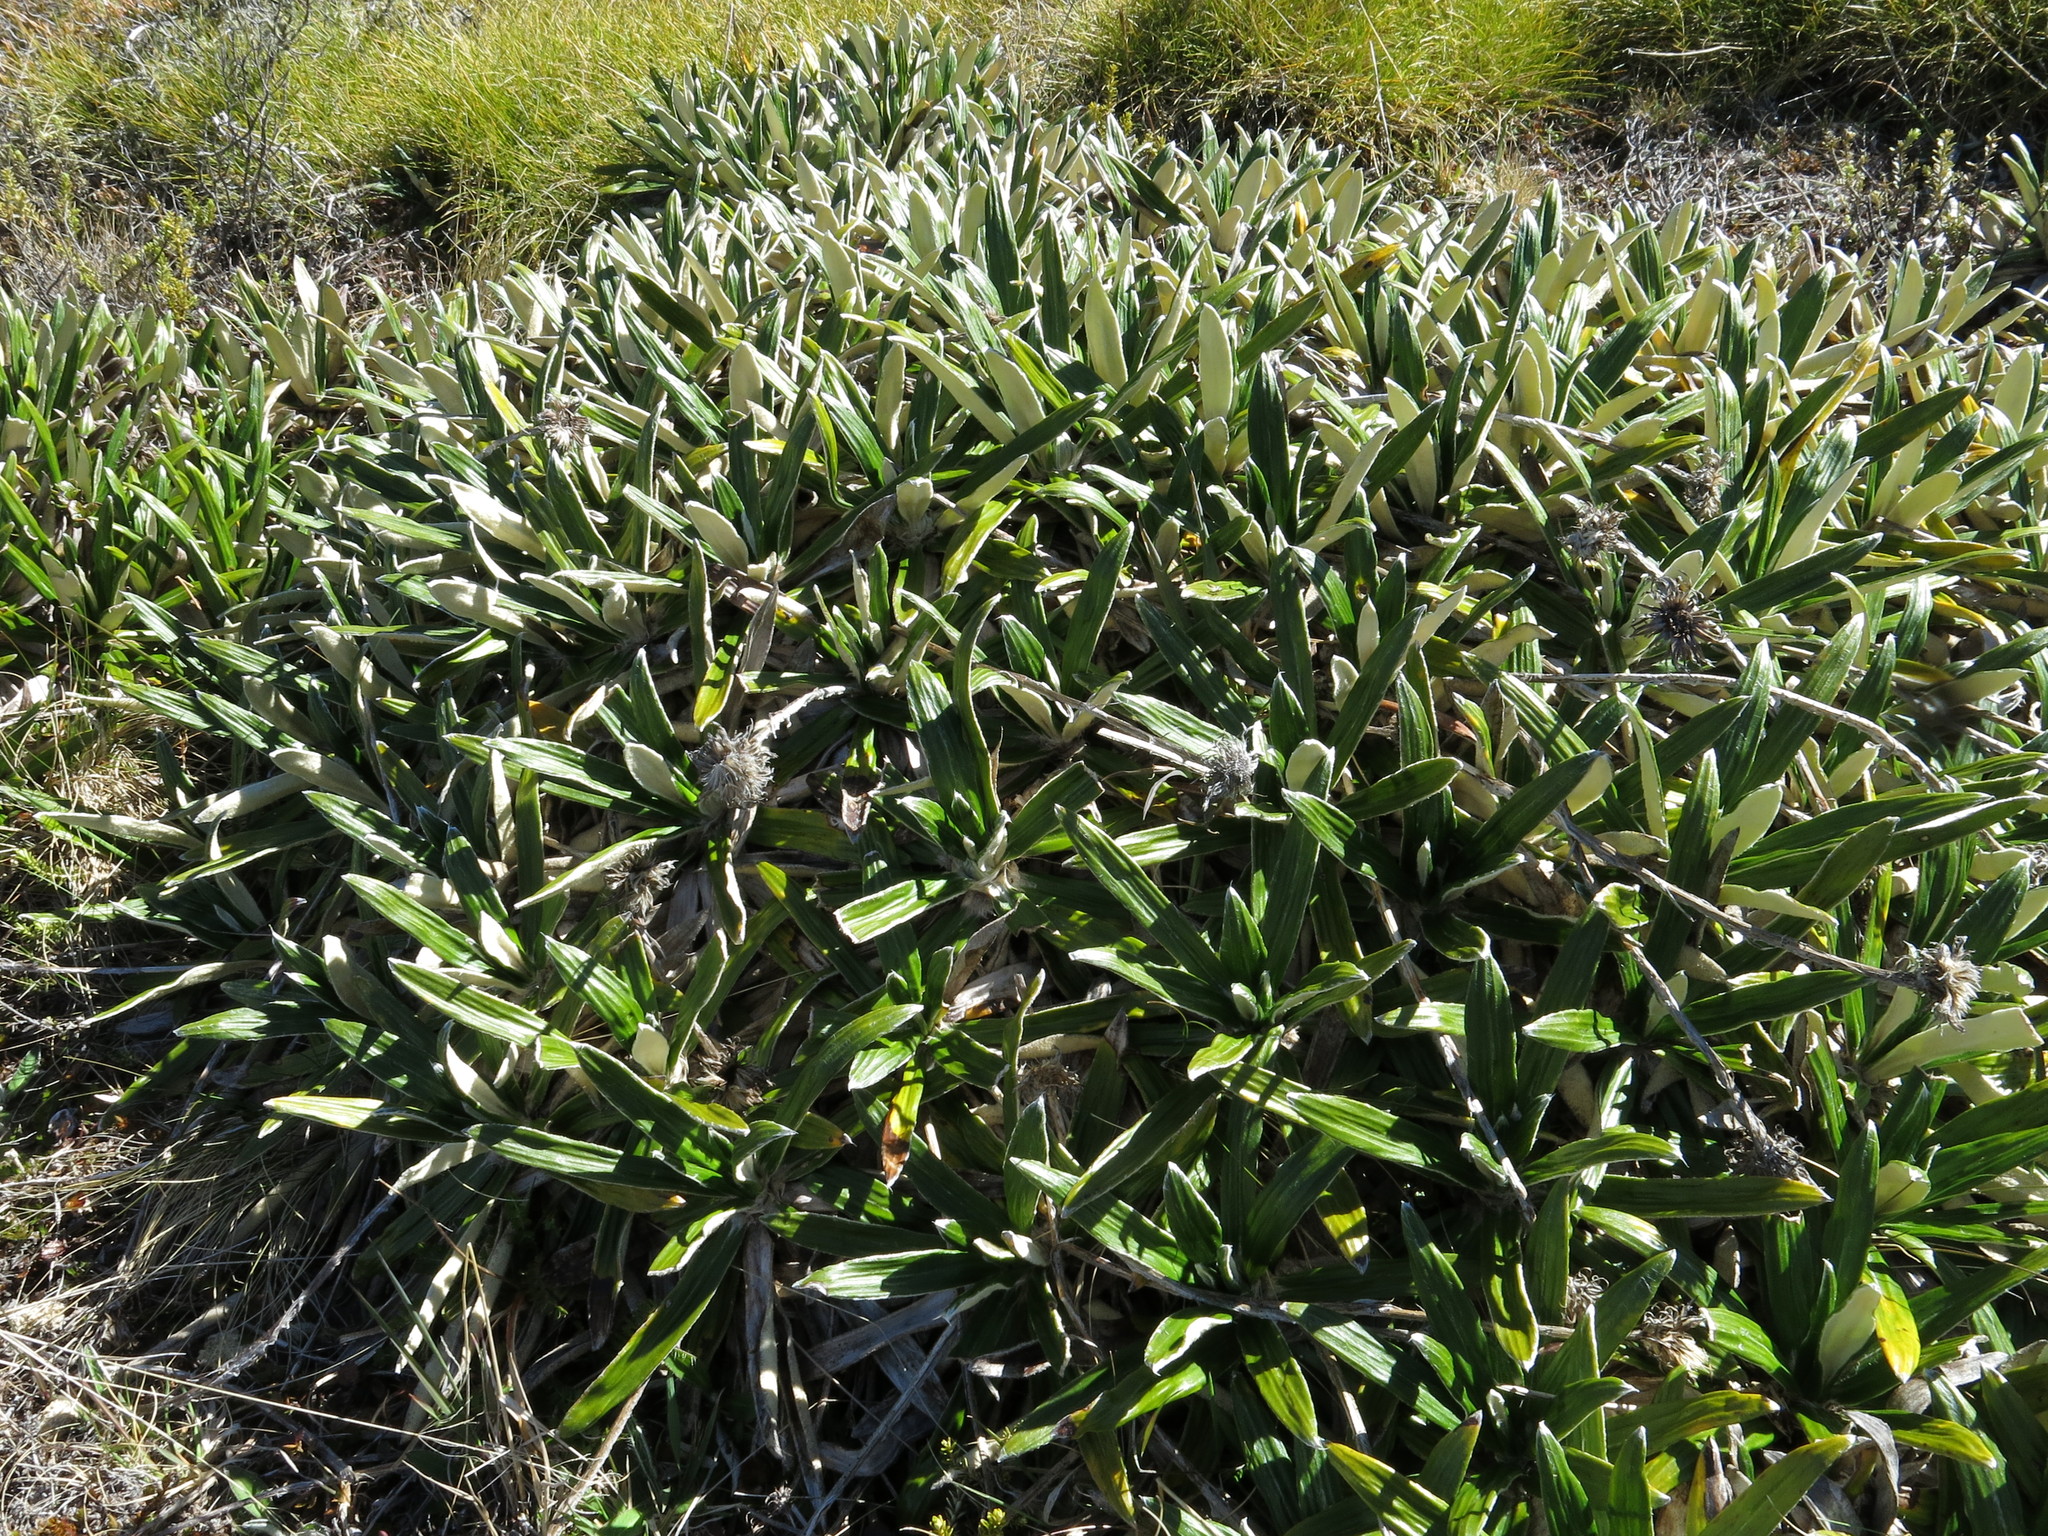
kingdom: Plantae
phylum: Tracheophyta
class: Magnoliopsida
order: Asterales
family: Asteraceae
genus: Celmisia
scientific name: Celmisia spectabilis
